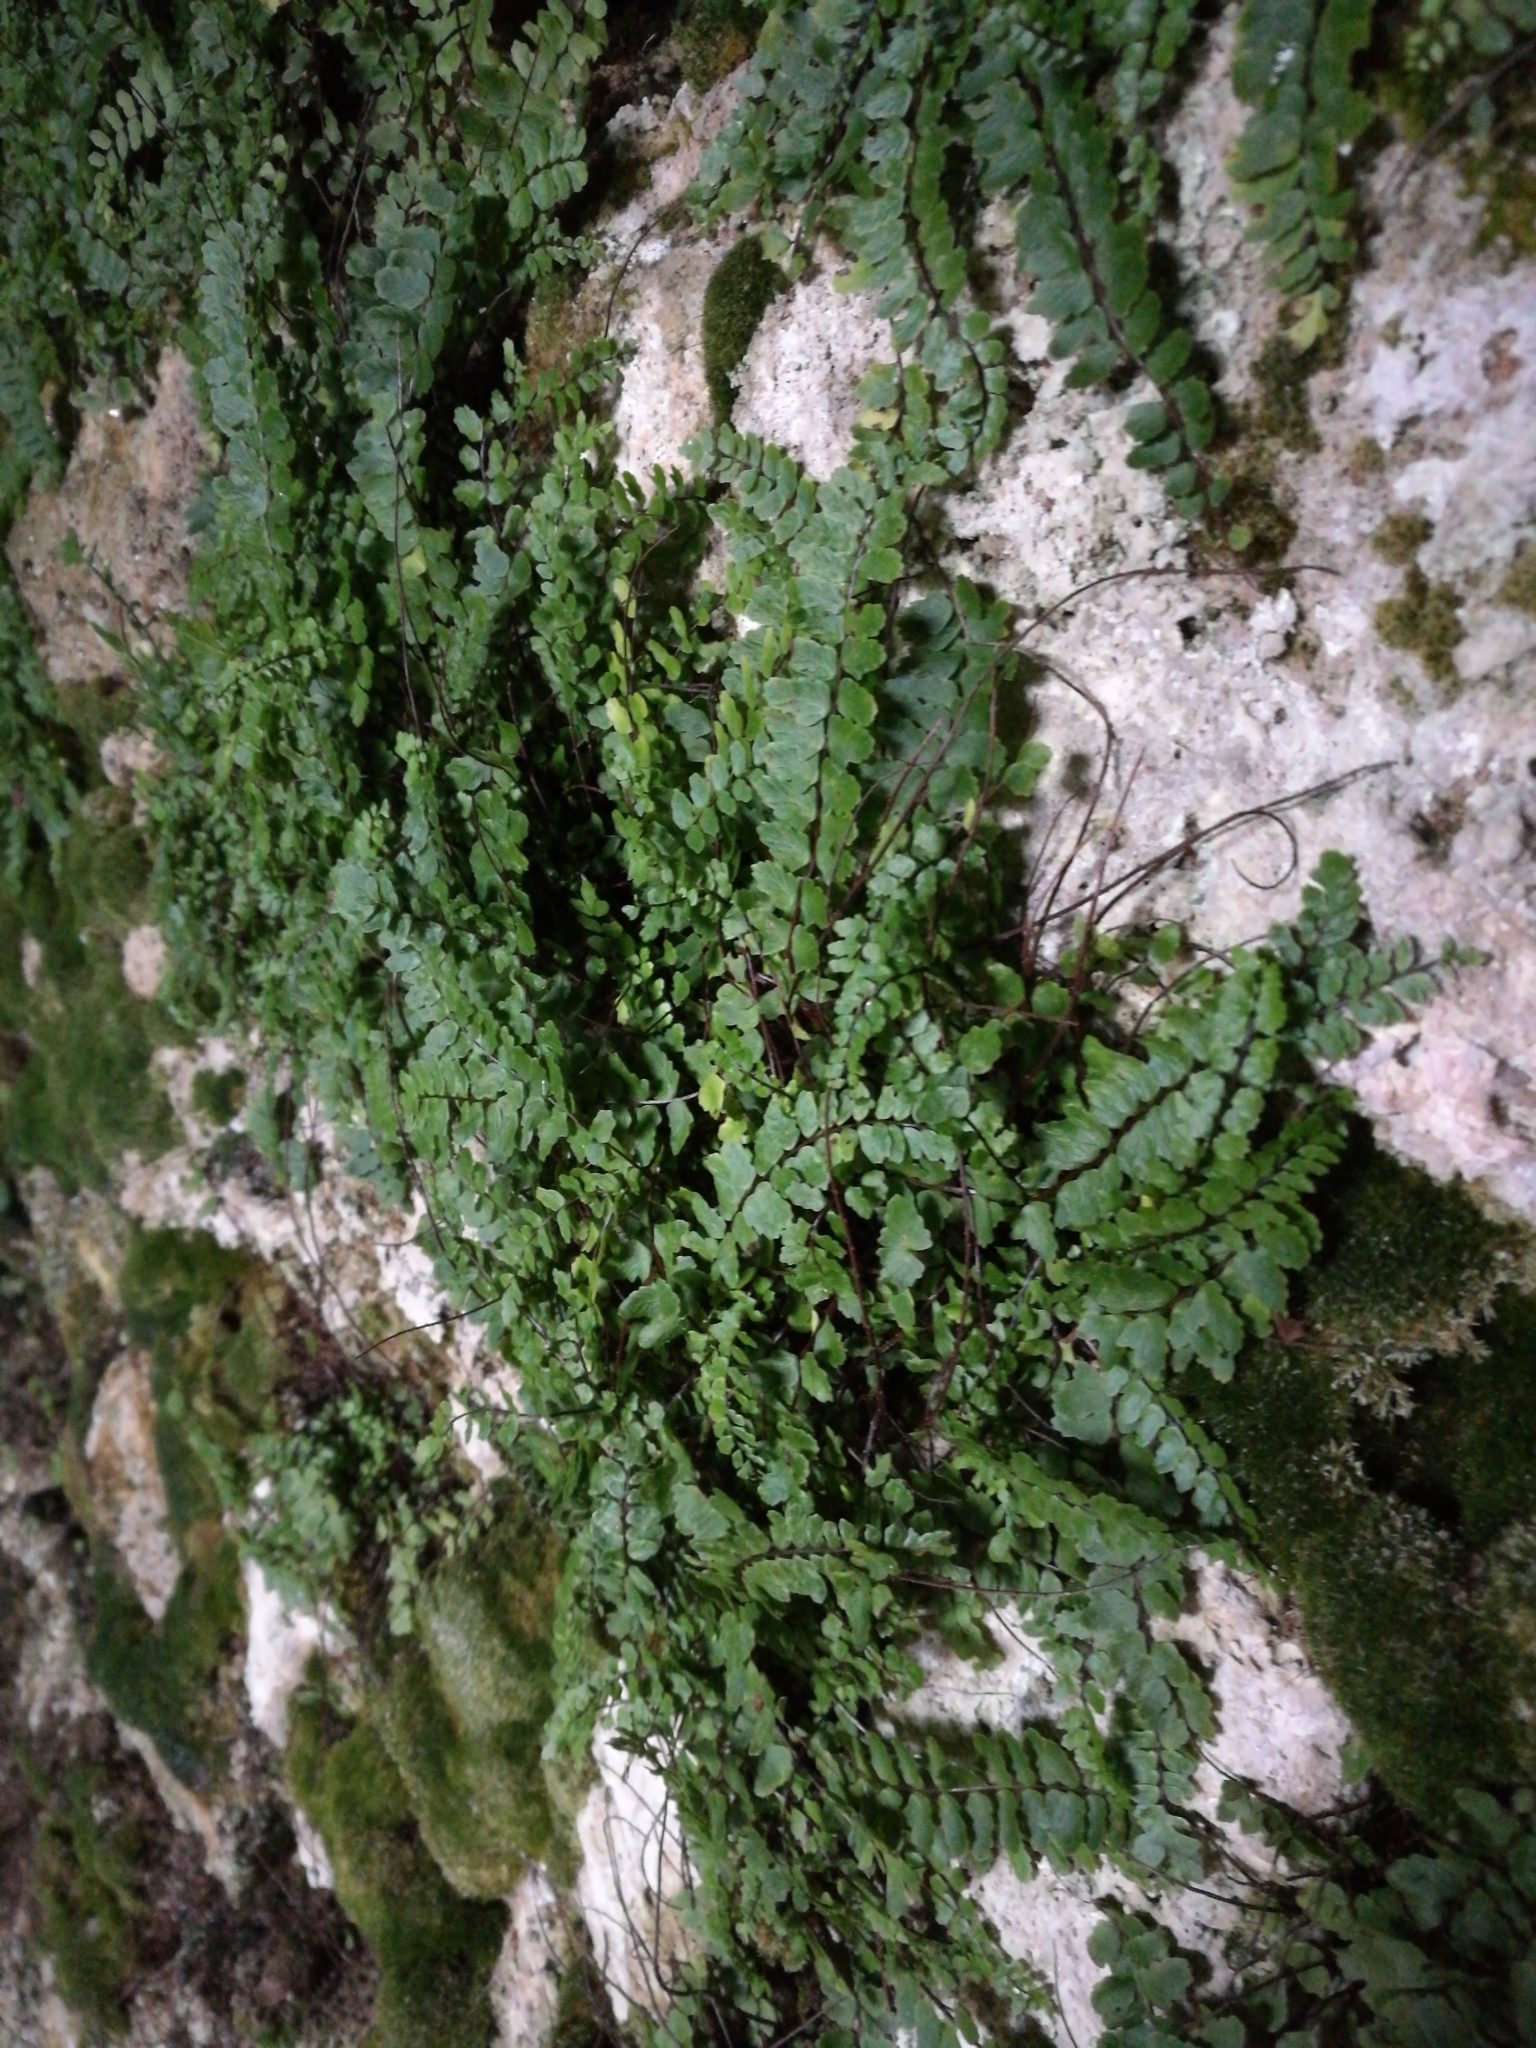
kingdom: Plantae
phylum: Tracheophyta
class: Polypodiopsida
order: Polypodiales
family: Aspleniaceae
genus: Asplenium
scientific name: Asplenium trichomanes
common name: Maidenhair spleenwort
